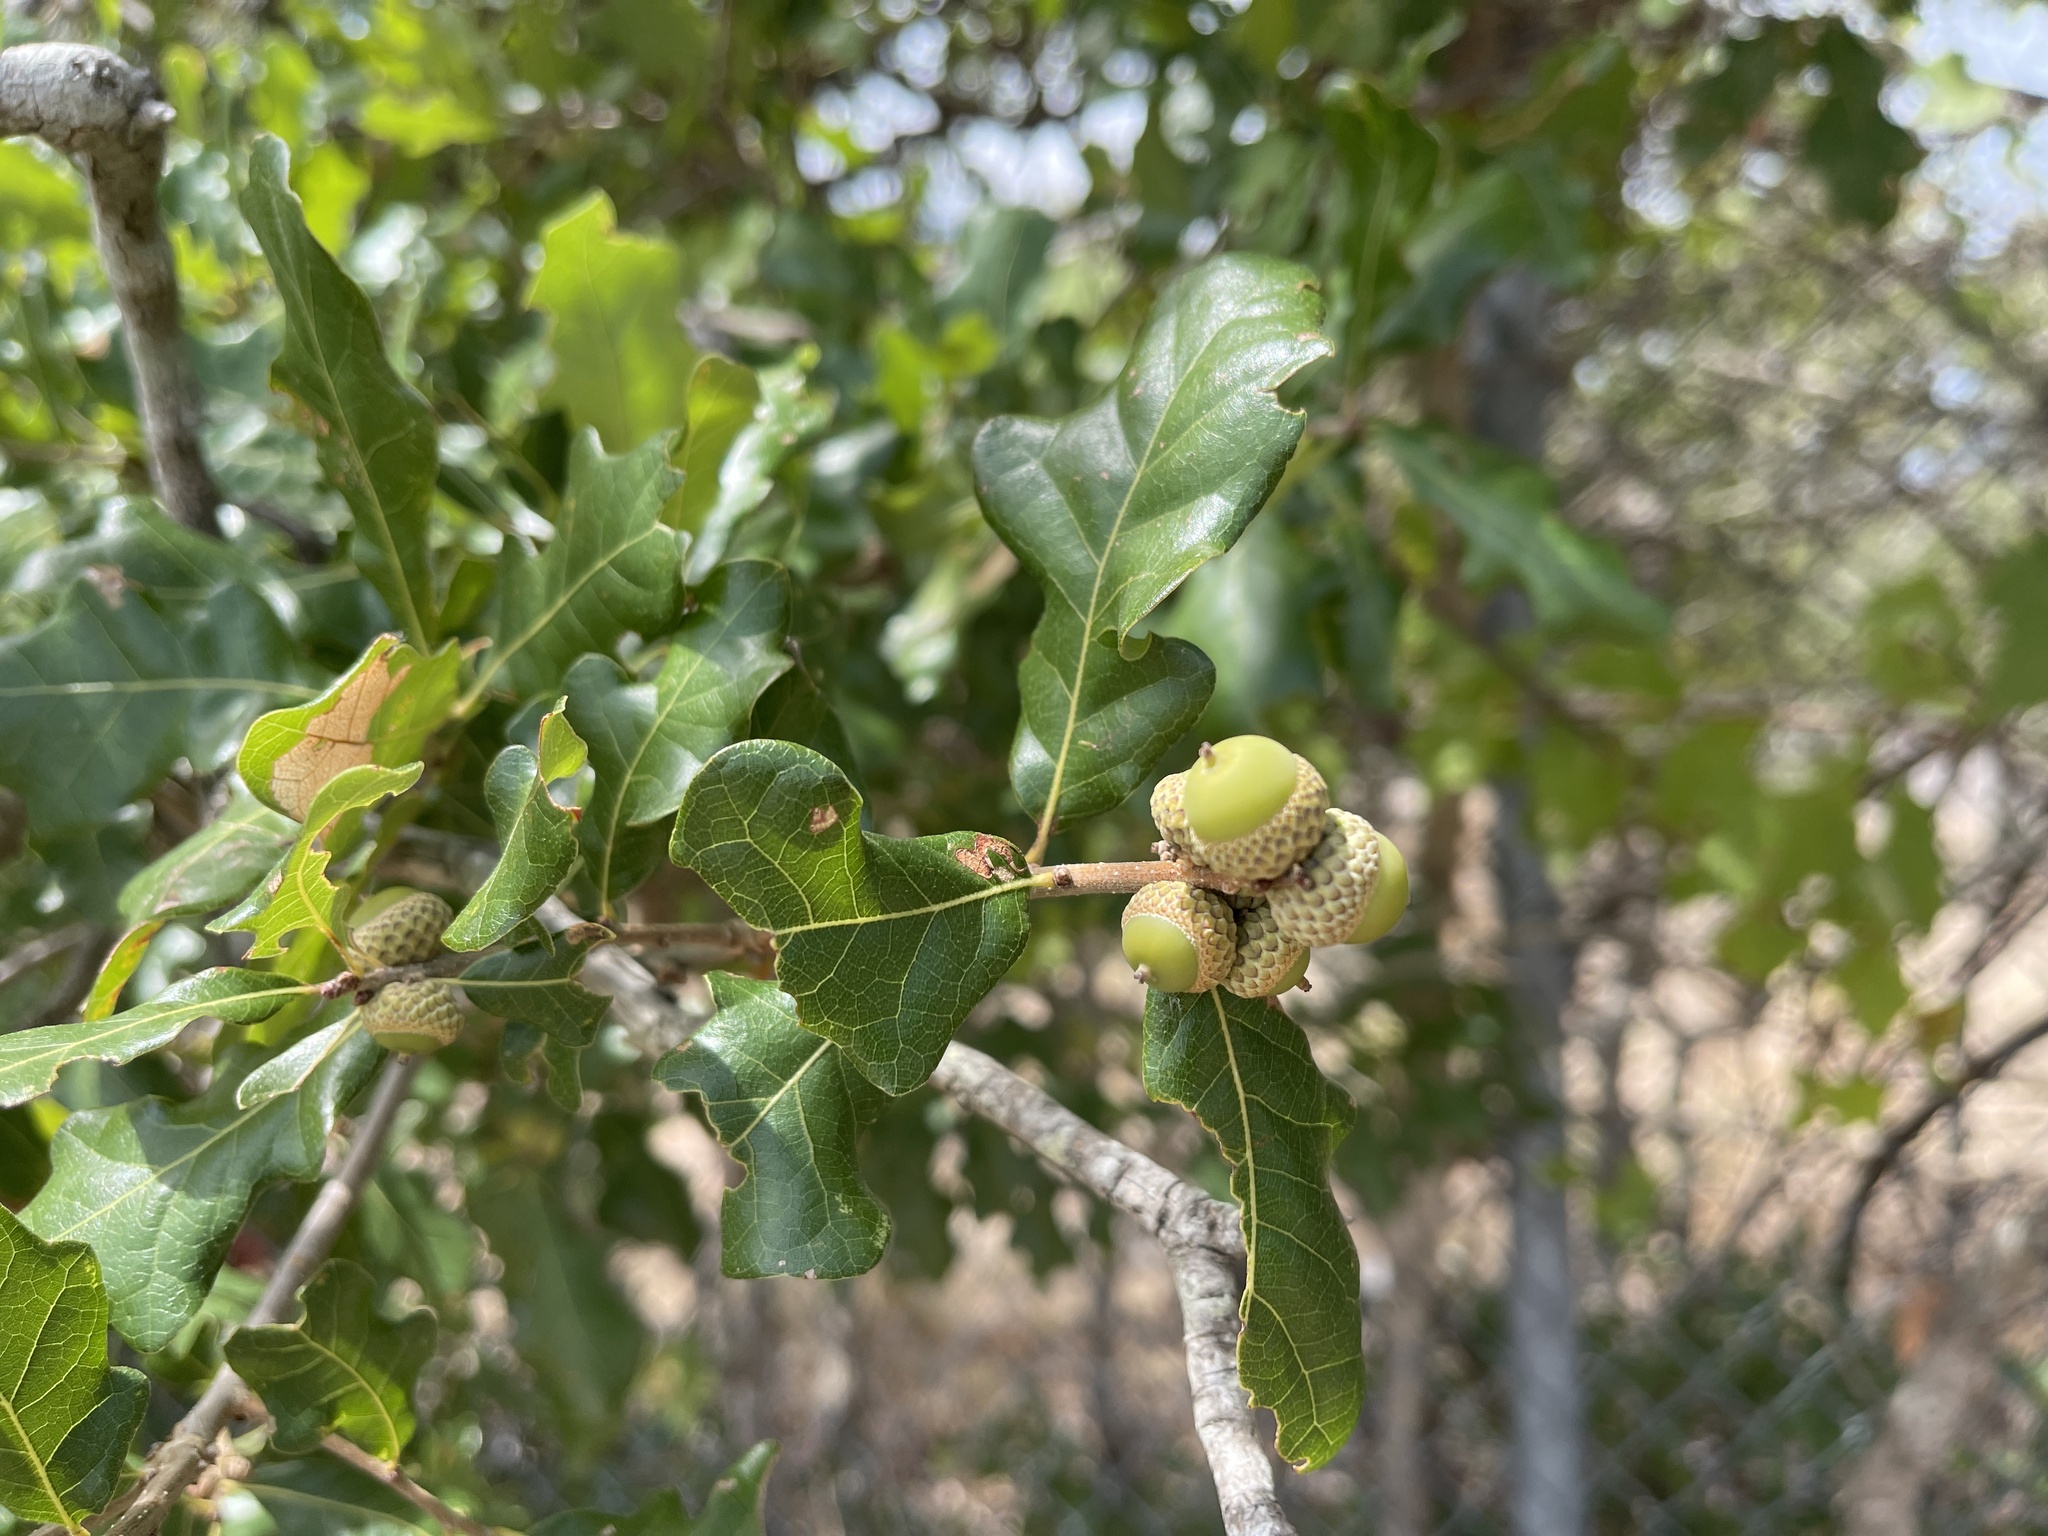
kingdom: Plantae
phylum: Tracheophyta
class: Magnoliopsida
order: Fagales
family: Fagaceae
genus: Quercus
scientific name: Quercus sinuata
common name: Durand oak
